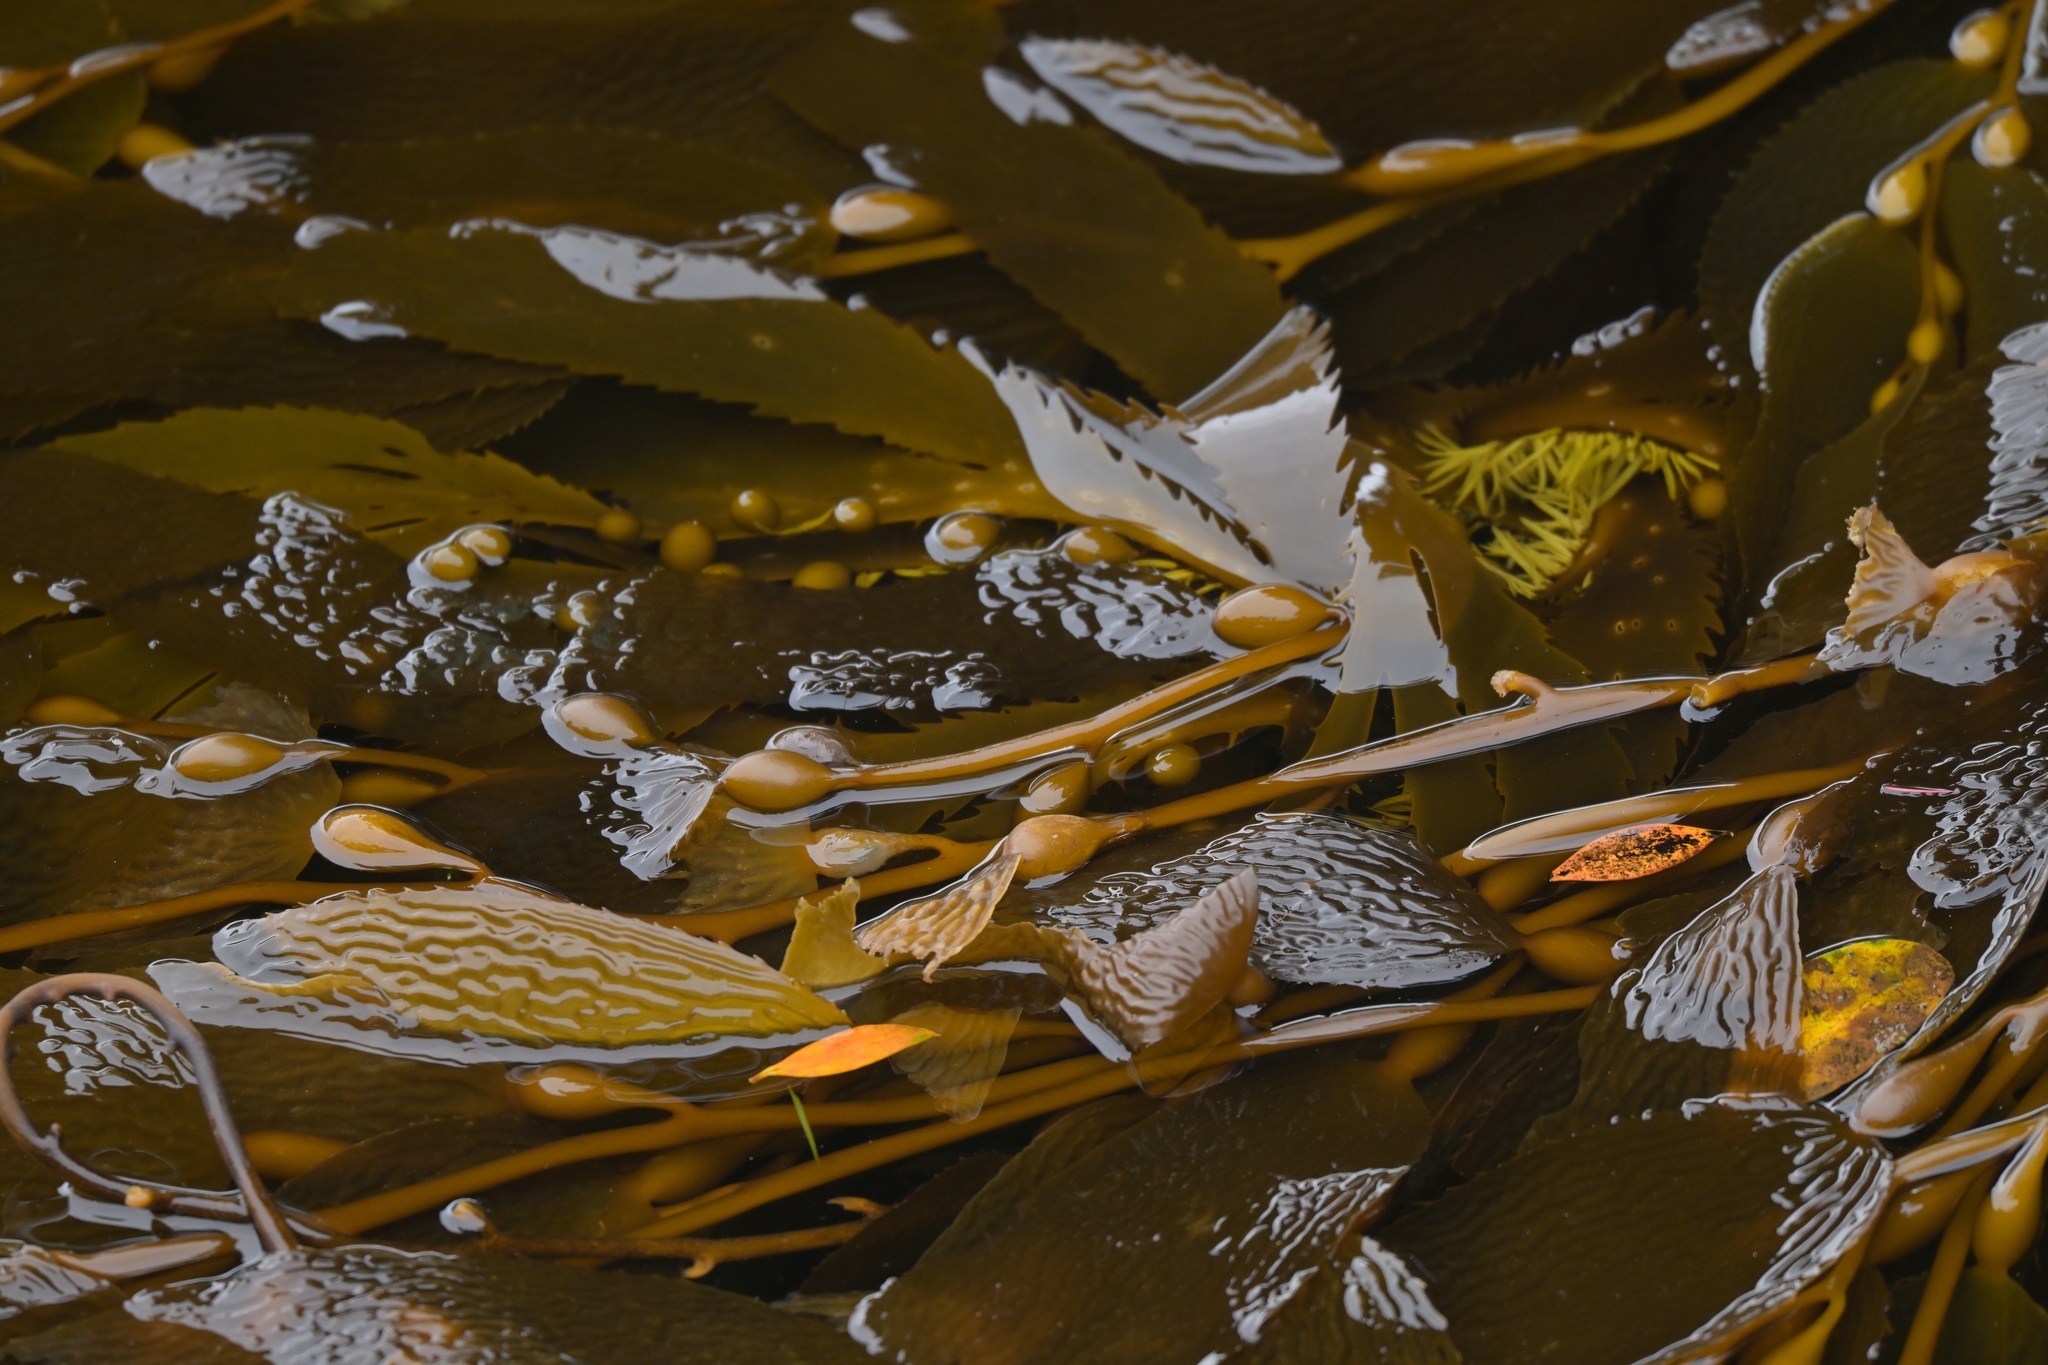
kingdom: Chromista
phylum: Ochrophyta
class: Phaeophyceae
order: Laminariales
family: Laminariaceae
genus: Macrocystis
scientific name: Macrocystis pyrifera
